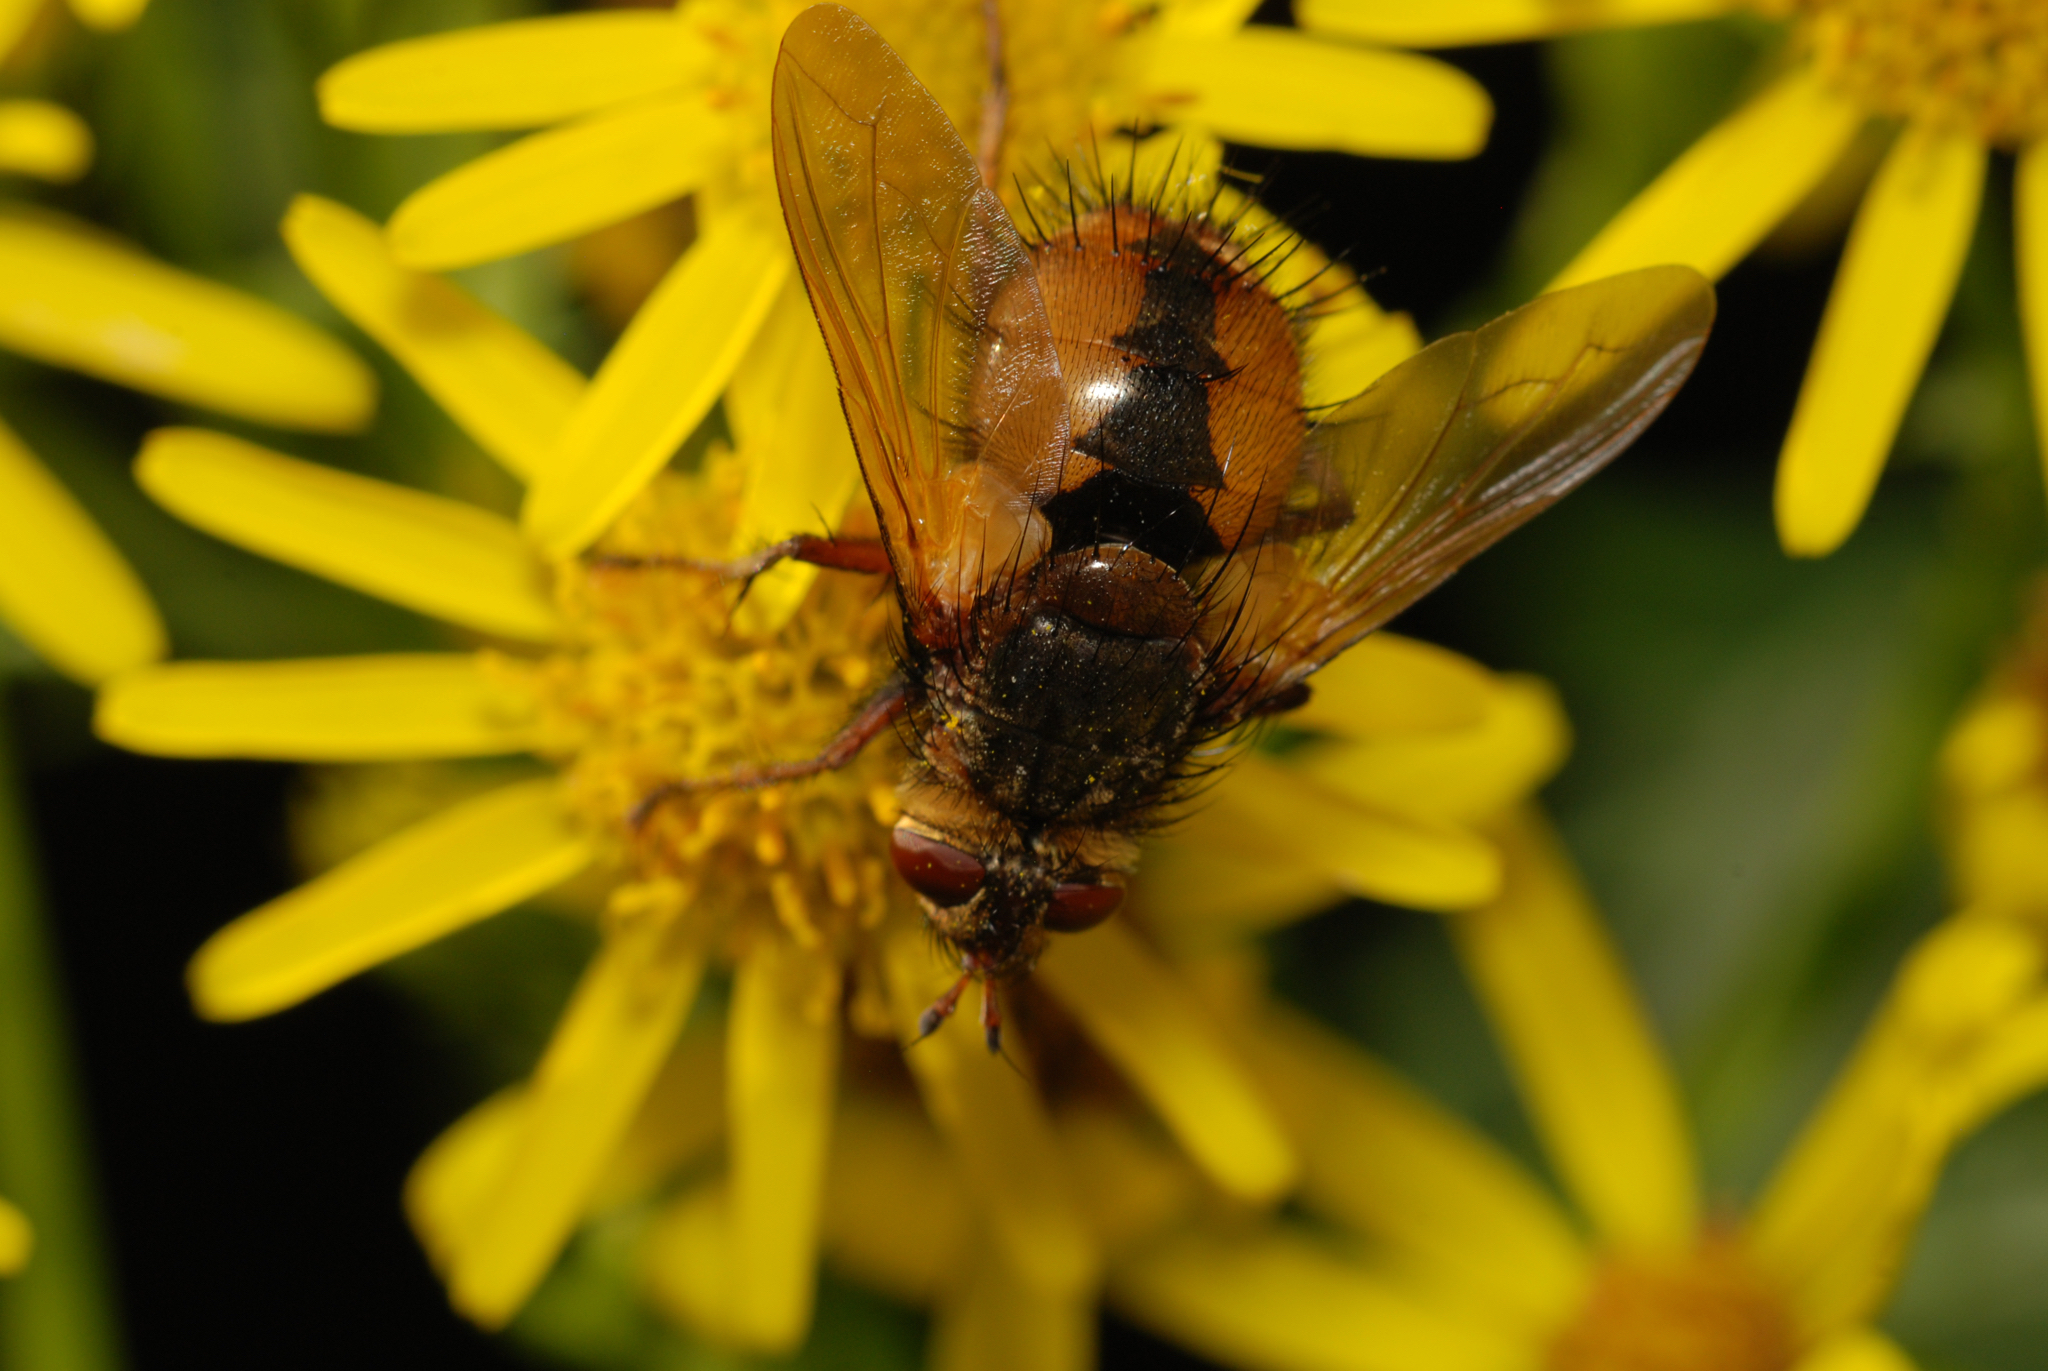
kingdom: Animalia
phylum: Arthropoda
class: Insecta
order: Diptera
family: Tachinidae
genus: Tachina
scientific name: Tachina fera
